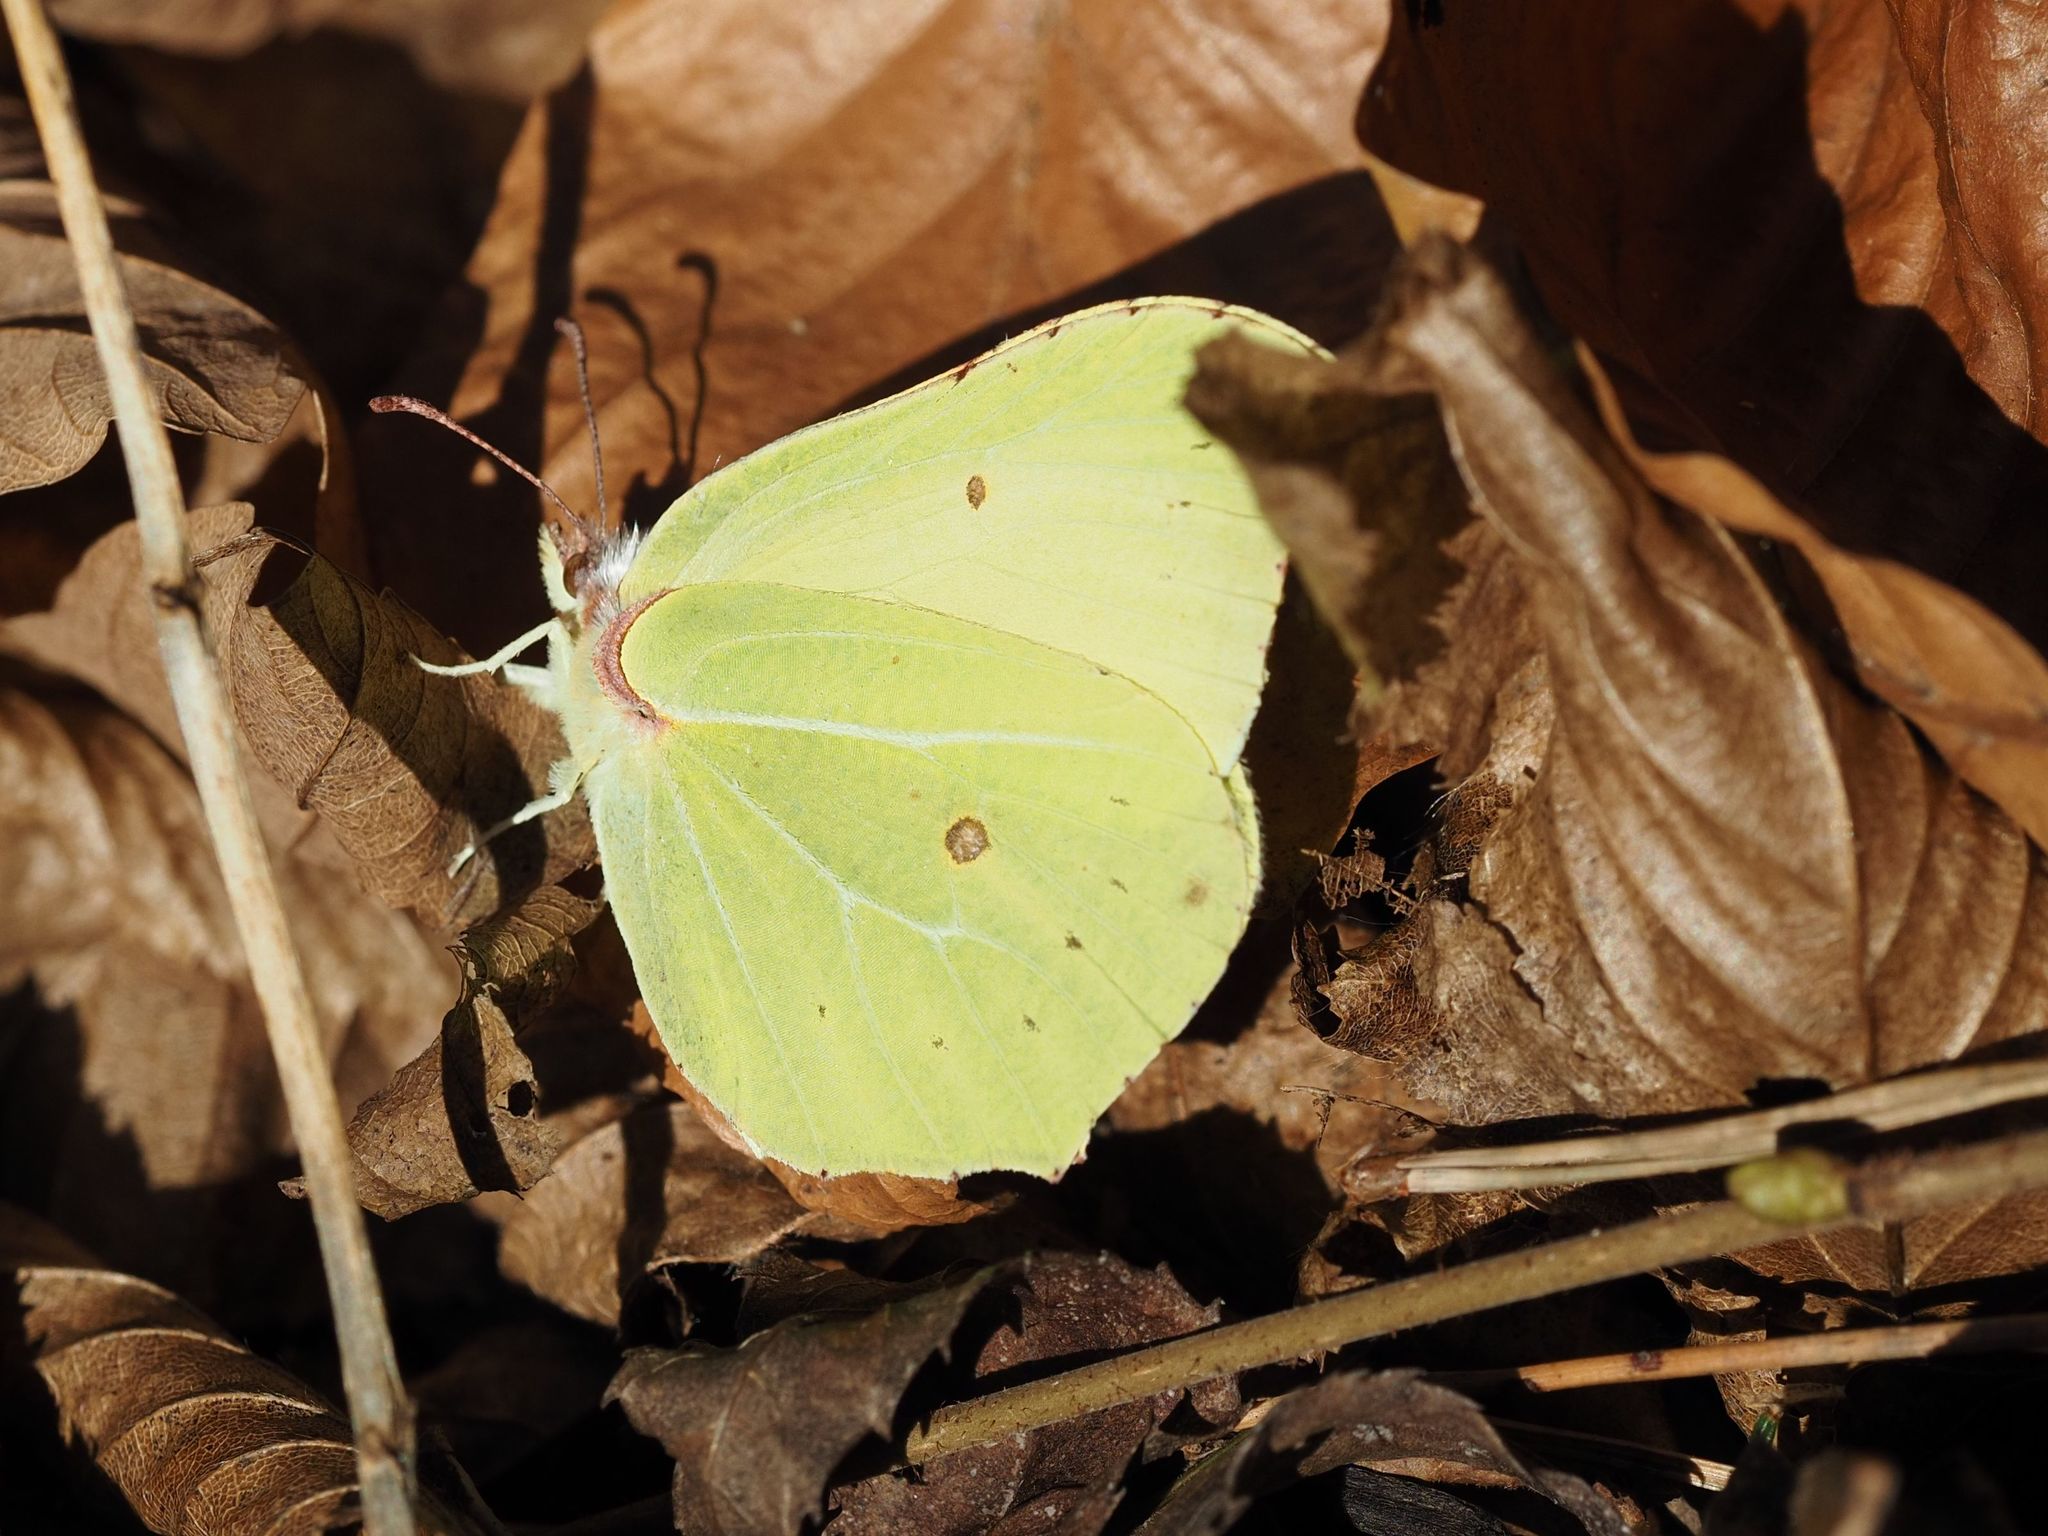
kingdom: Animalia
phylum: Arthropoda
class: Insecta
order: Lepidoptera
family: Pieridae
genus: Gonepteryx
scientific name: Gonepteryx rhamni
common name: Brimstone
